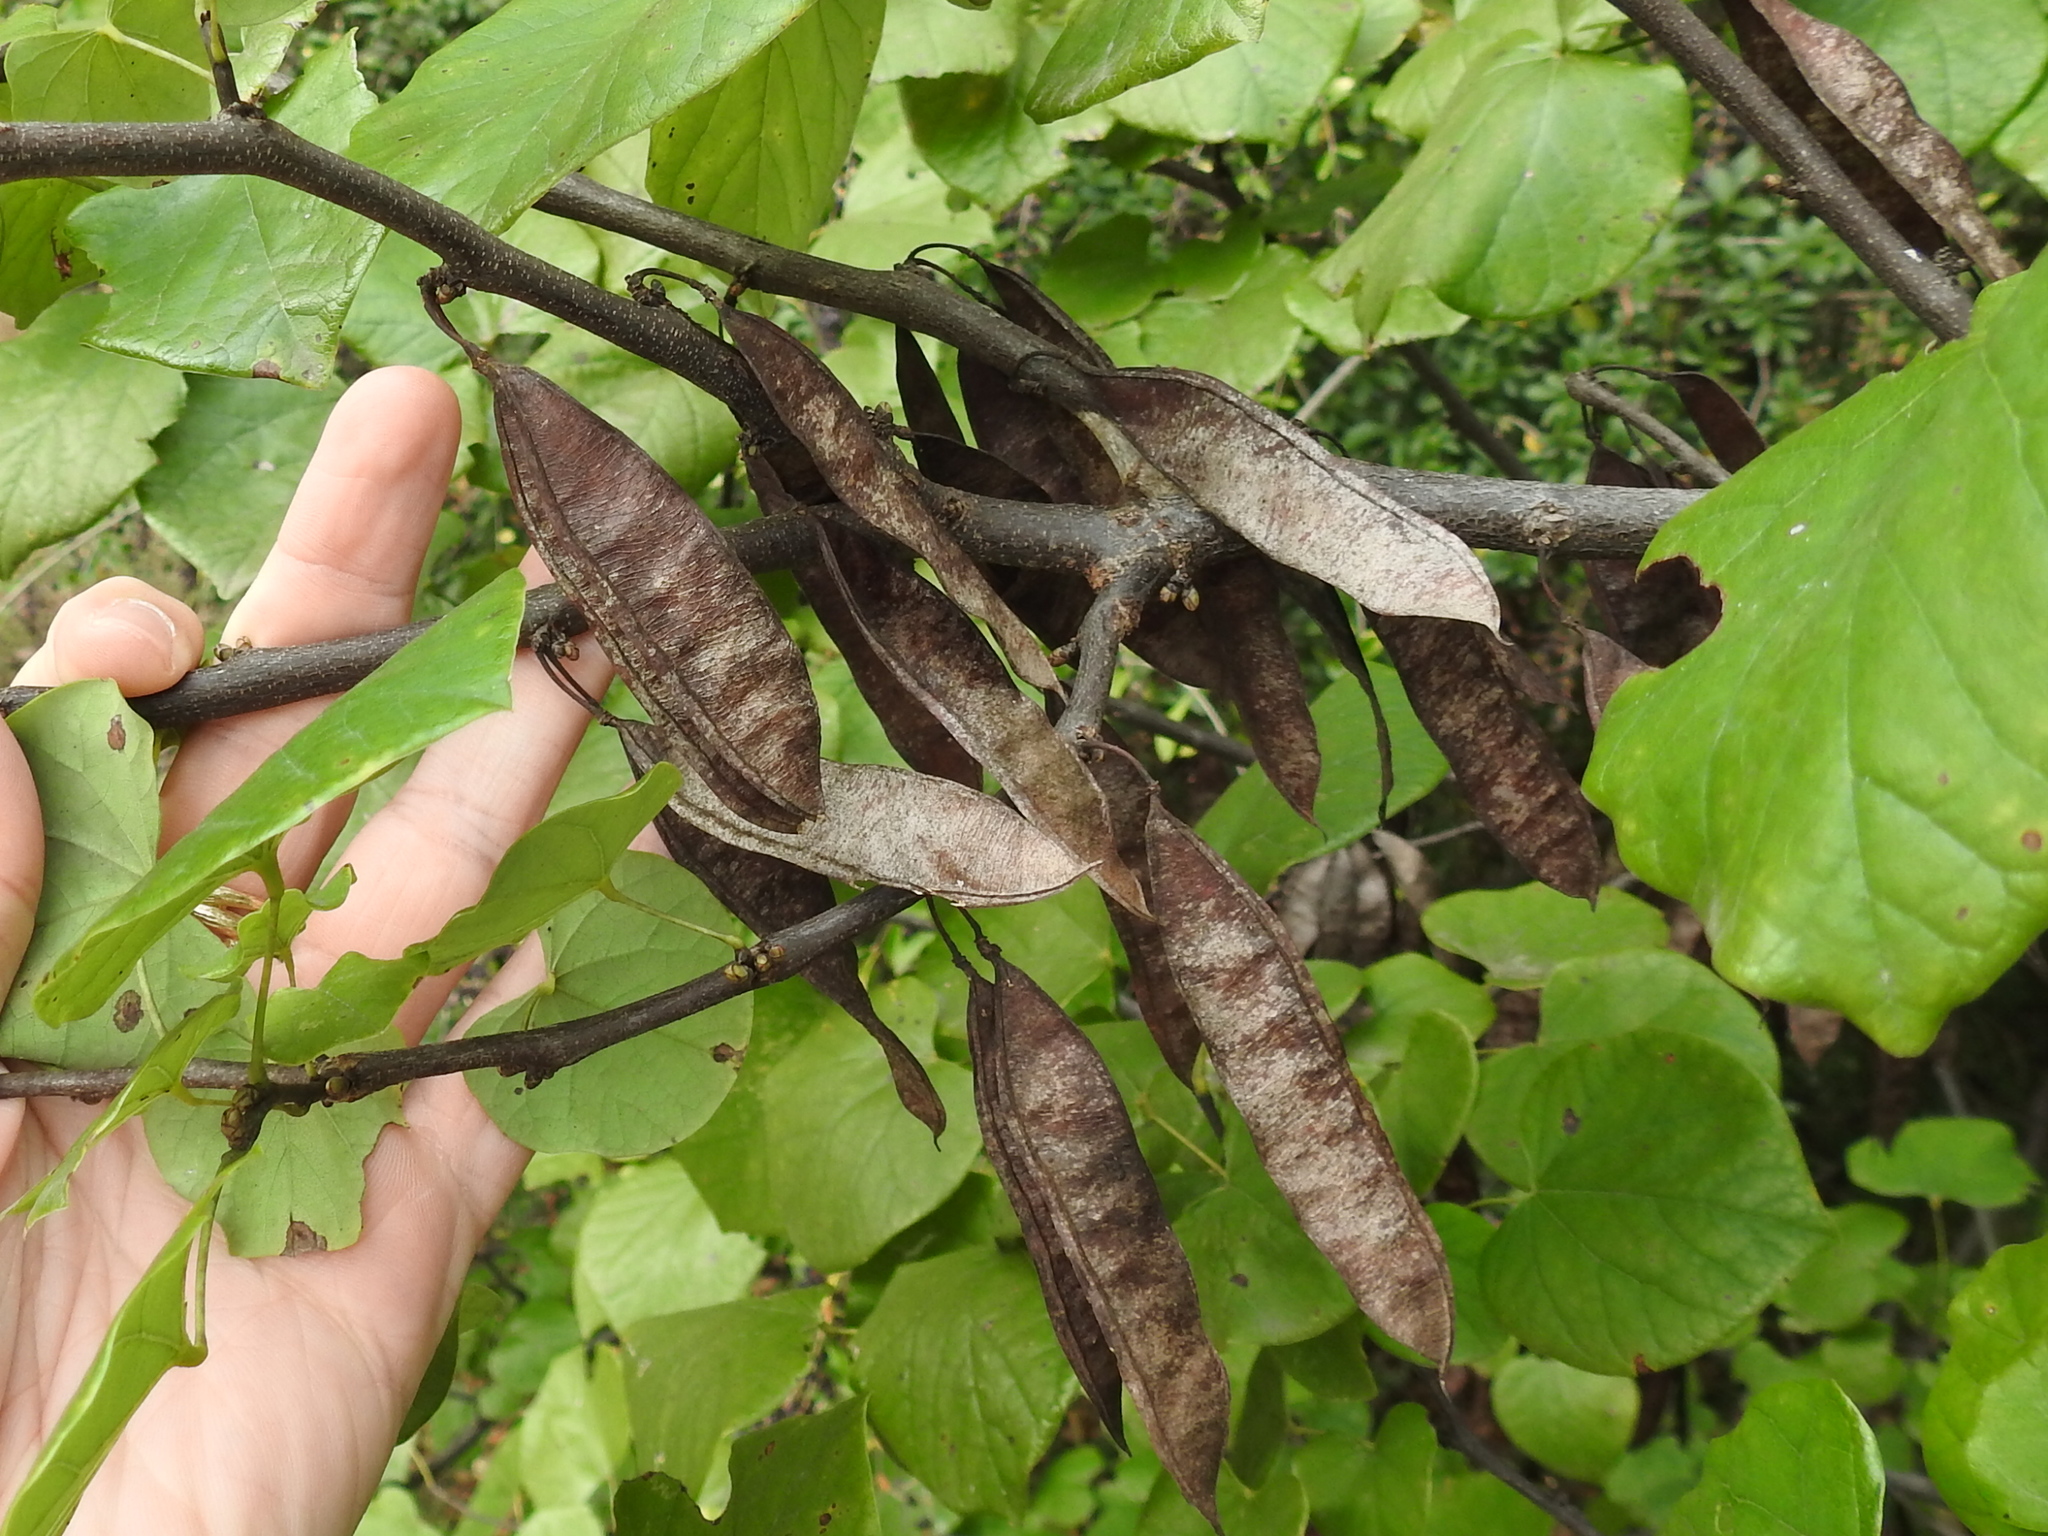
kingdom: Plantae
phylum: Tracheophyta
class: Magnoliopsida
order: Fabales
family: Fabaceae
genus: Cercis
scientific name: Cercis canadensis
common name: Eastern redbud
